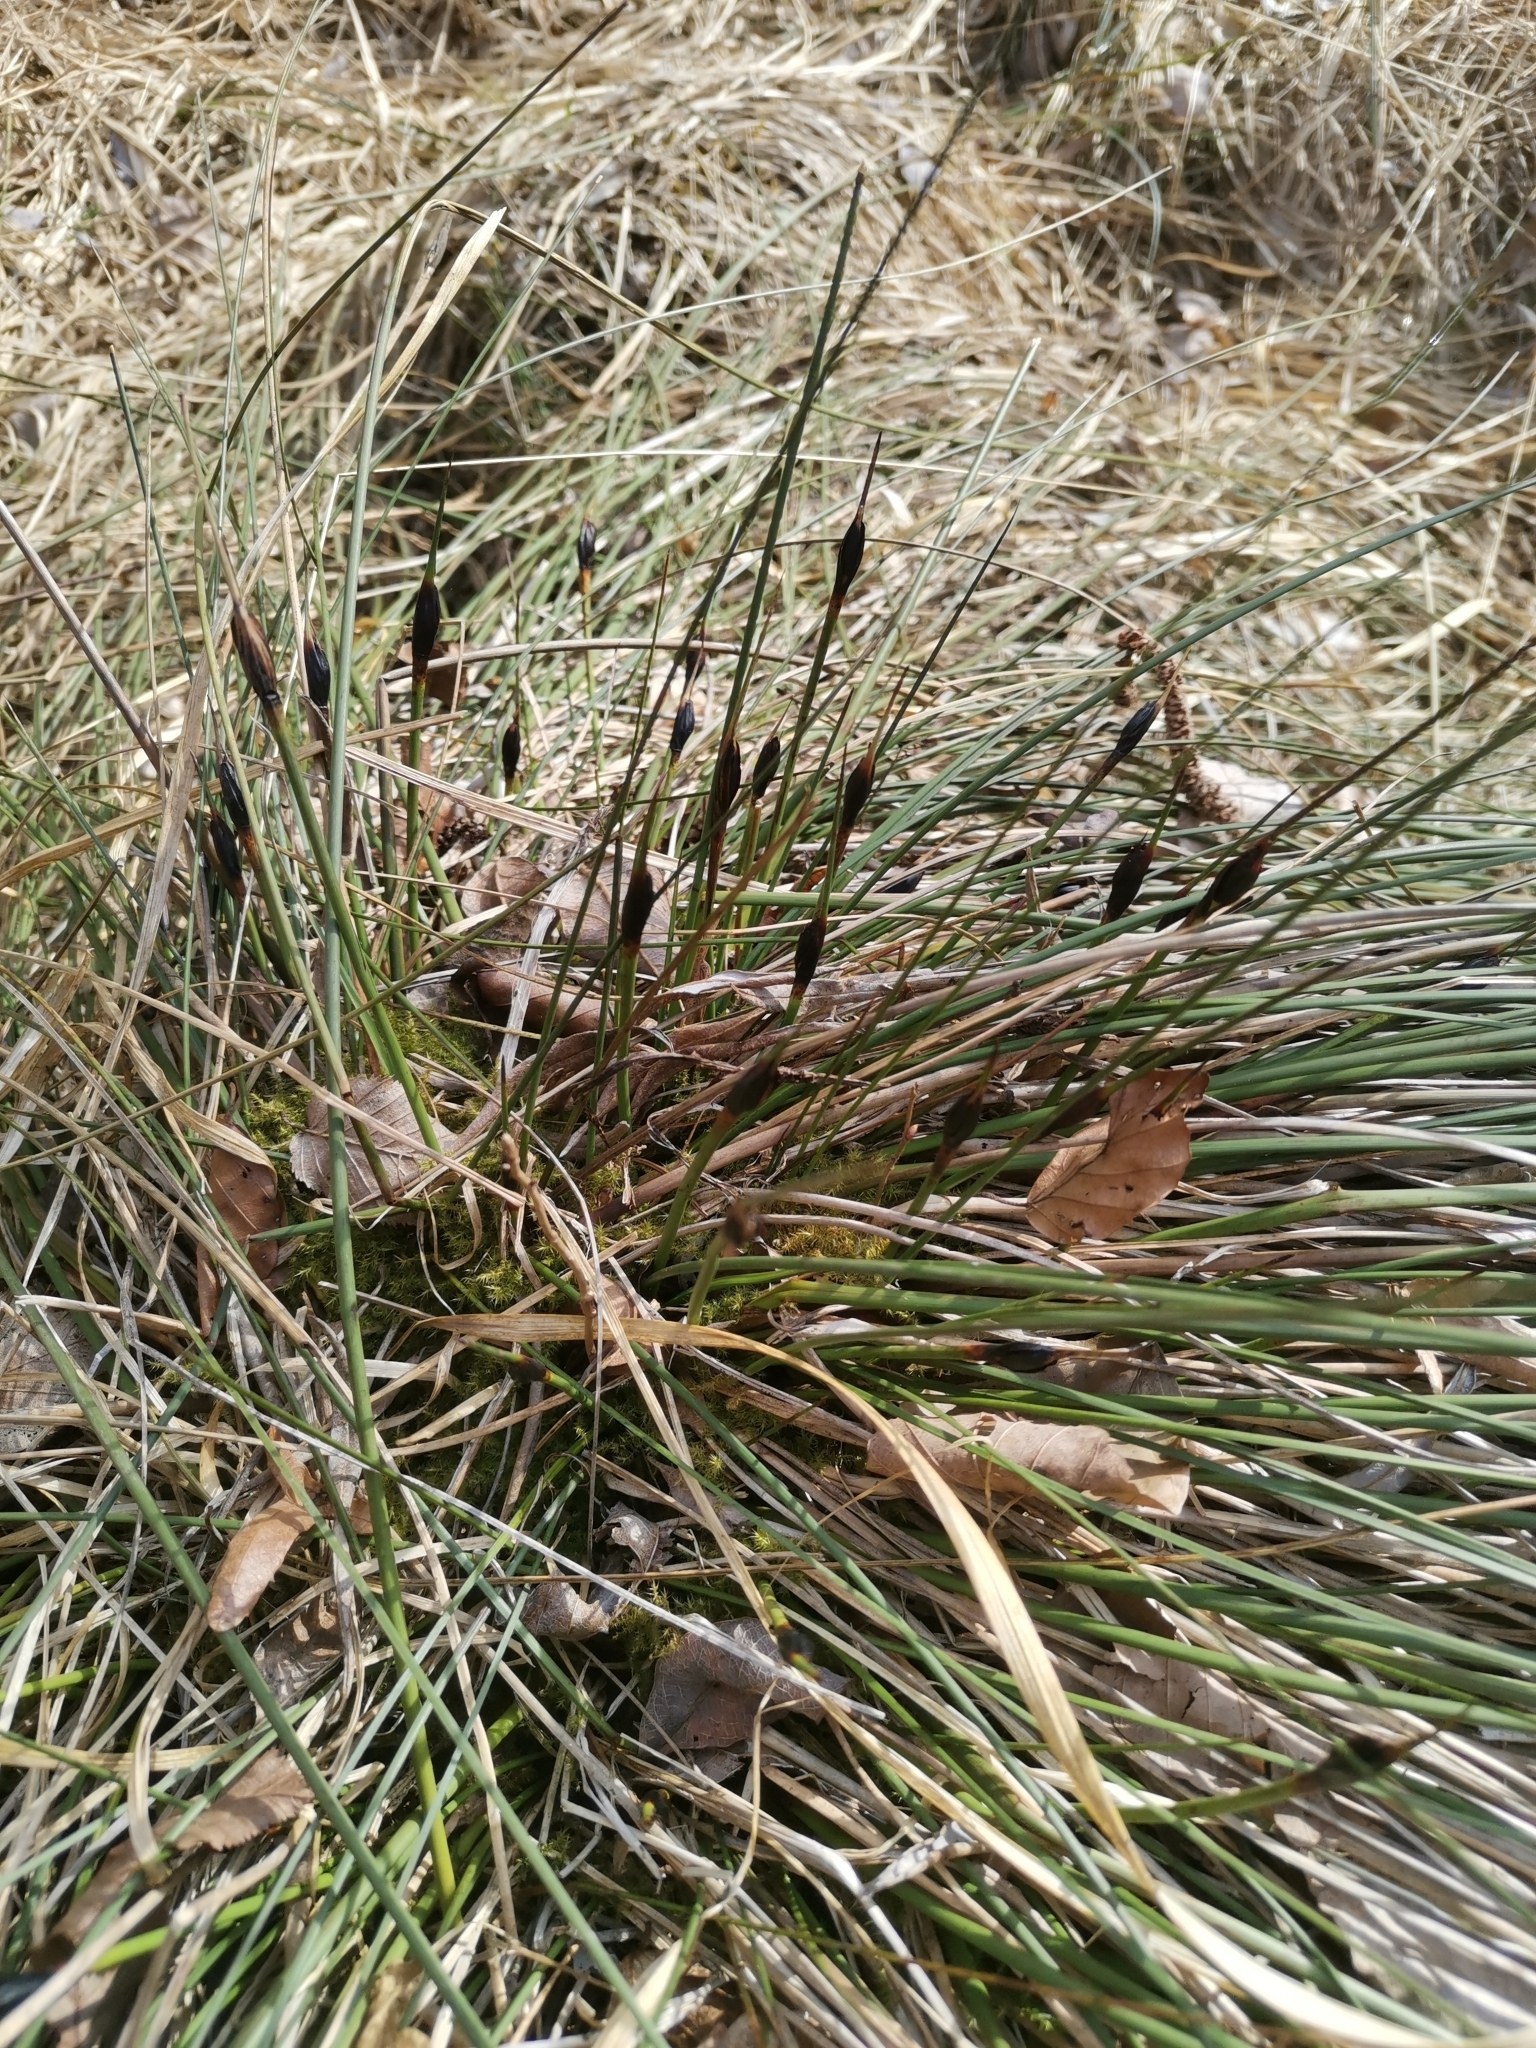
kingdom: Plantae
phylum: Tracheophyta
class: Liliopsida
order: Poales
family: Cyperaceae
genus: Schoenus
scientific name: Schoenus nigricans
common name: Black bog-rush
